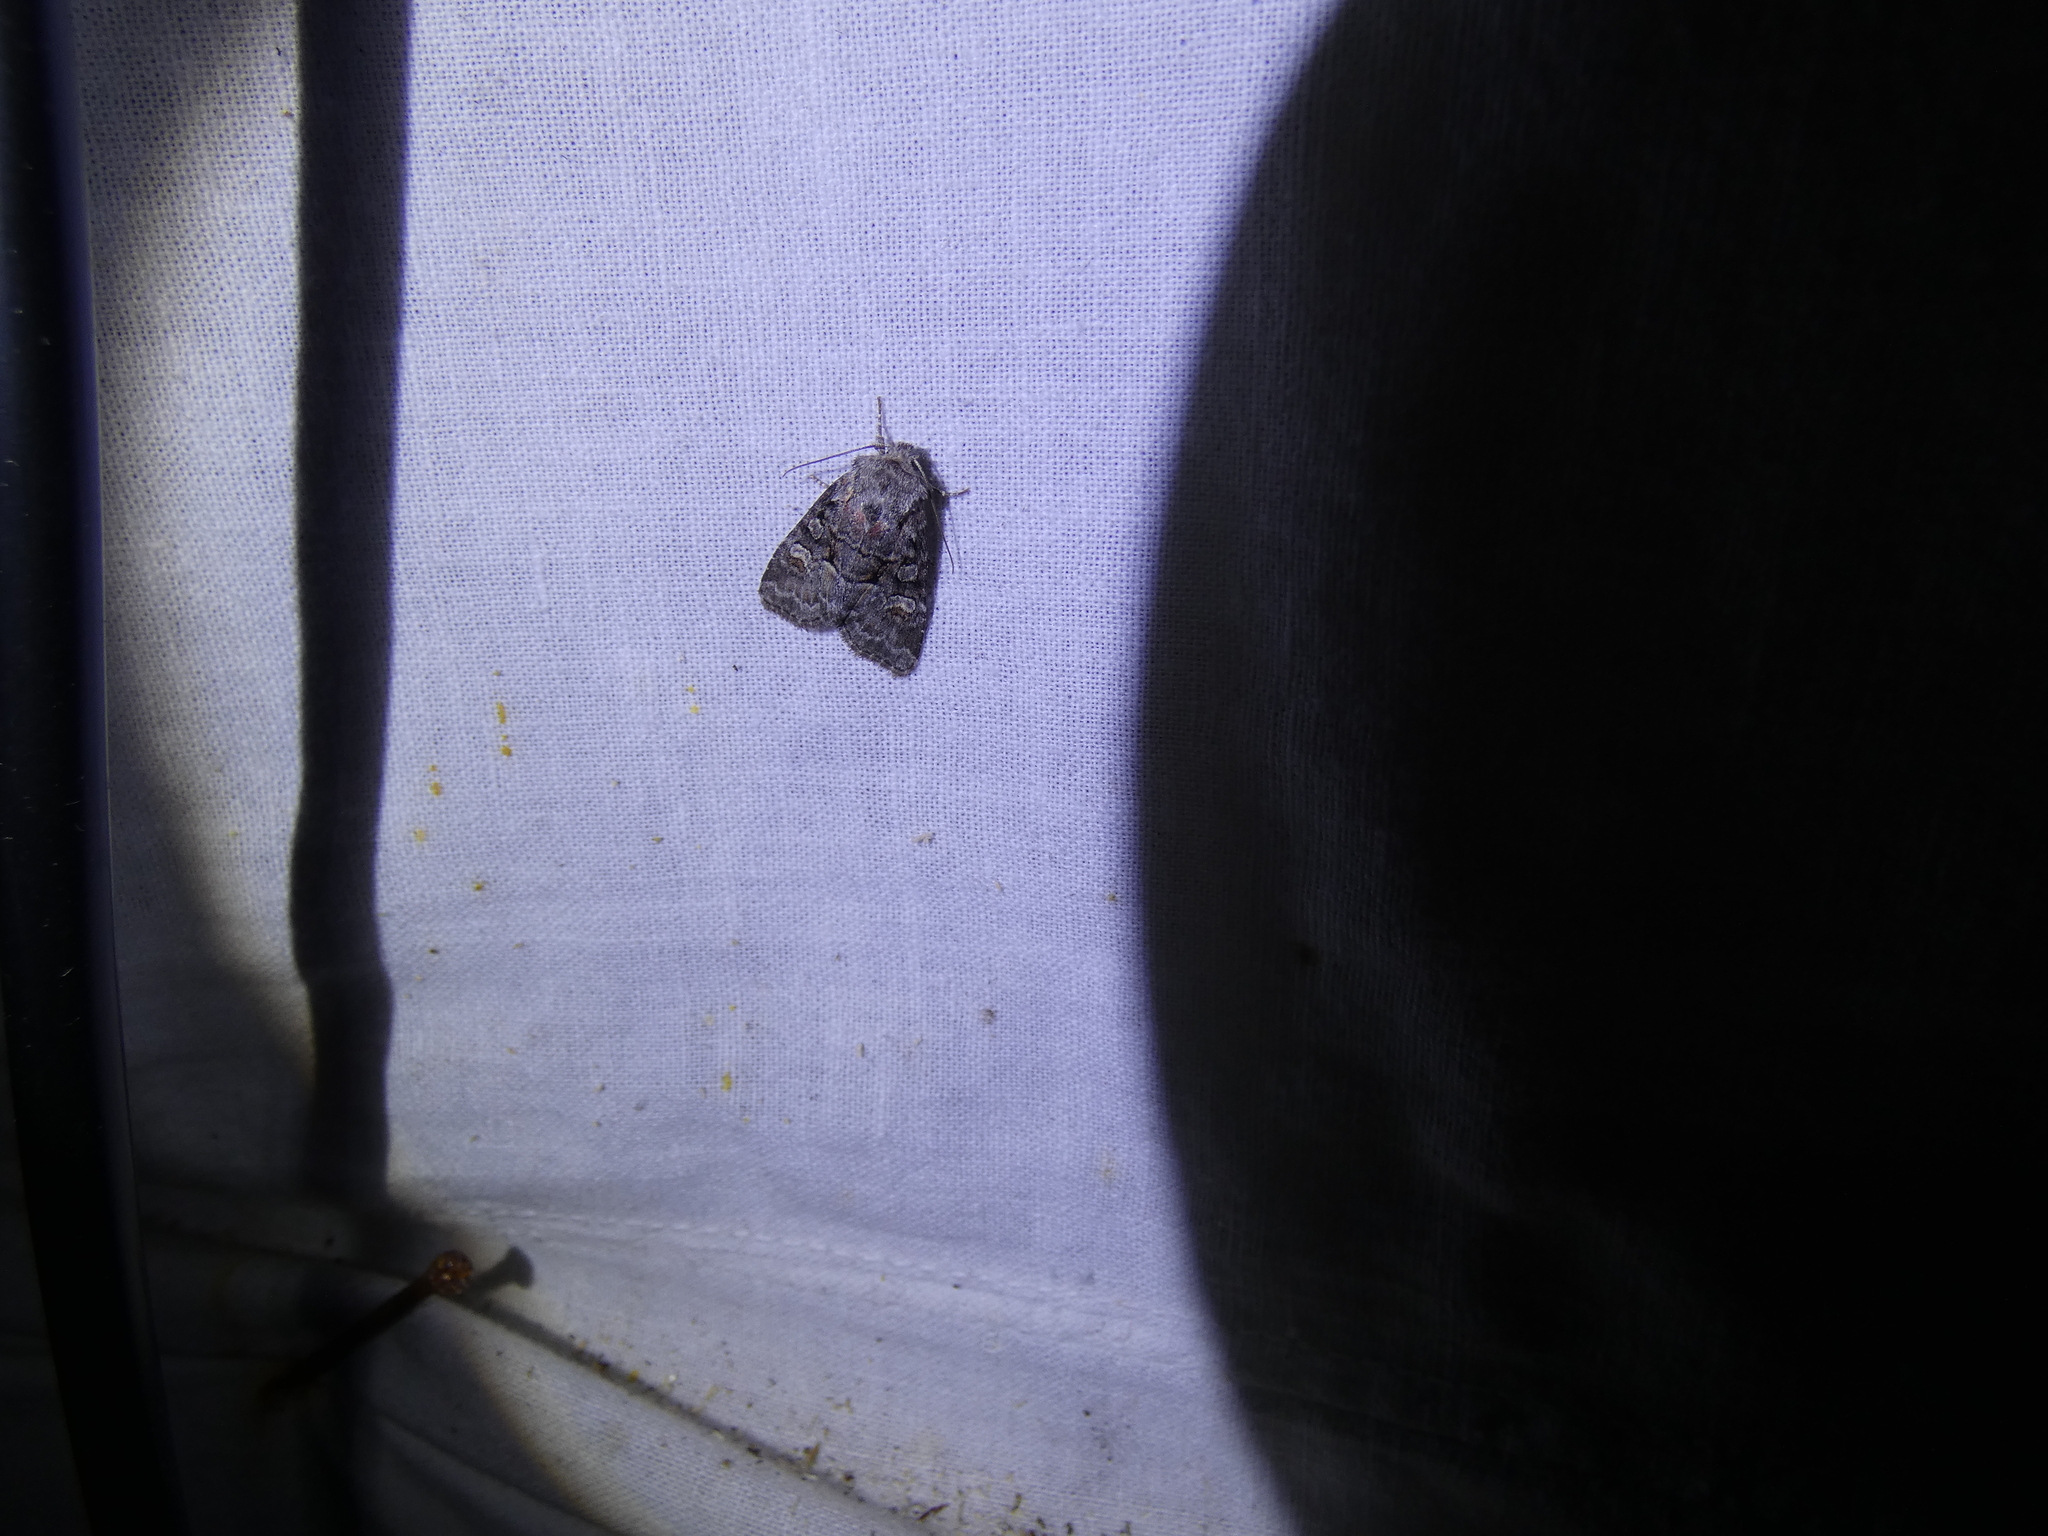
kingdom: Animalia
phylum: Arthropoda
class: Insecta
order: Lepidoptera
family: Noctuidae
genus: Brachylomia
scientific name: Brachylomia viminalis
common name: Minor shoulder-knot
